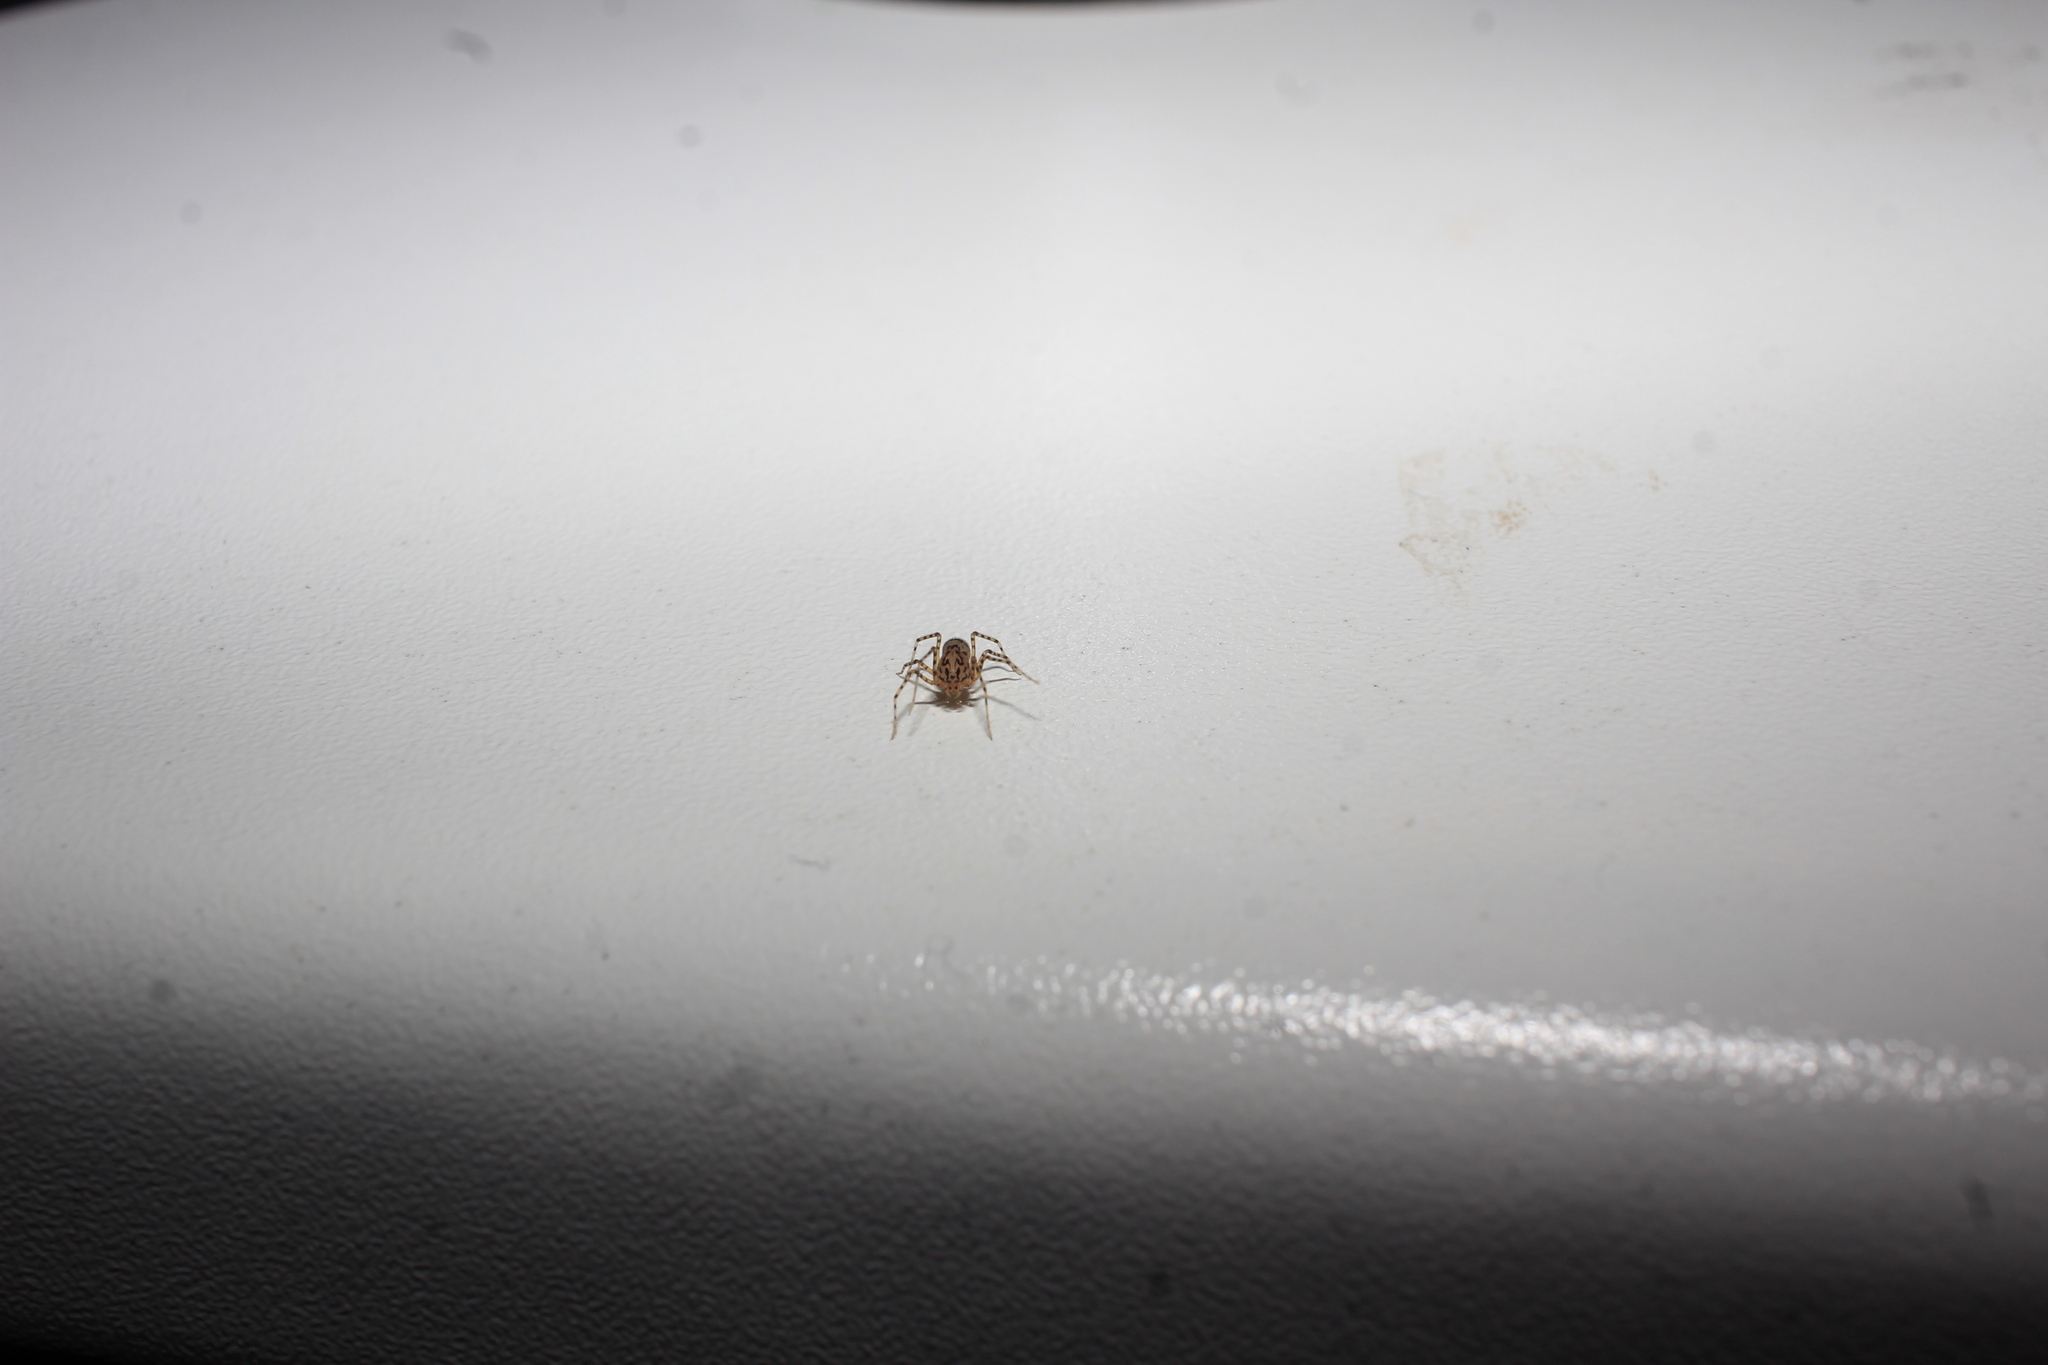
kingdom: Animalia
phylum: Arthropoda
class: Arachnida
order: Araneae
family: Scytodidae
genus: Scytodes
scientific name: Scytodes thoracica
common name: Spitting spider
